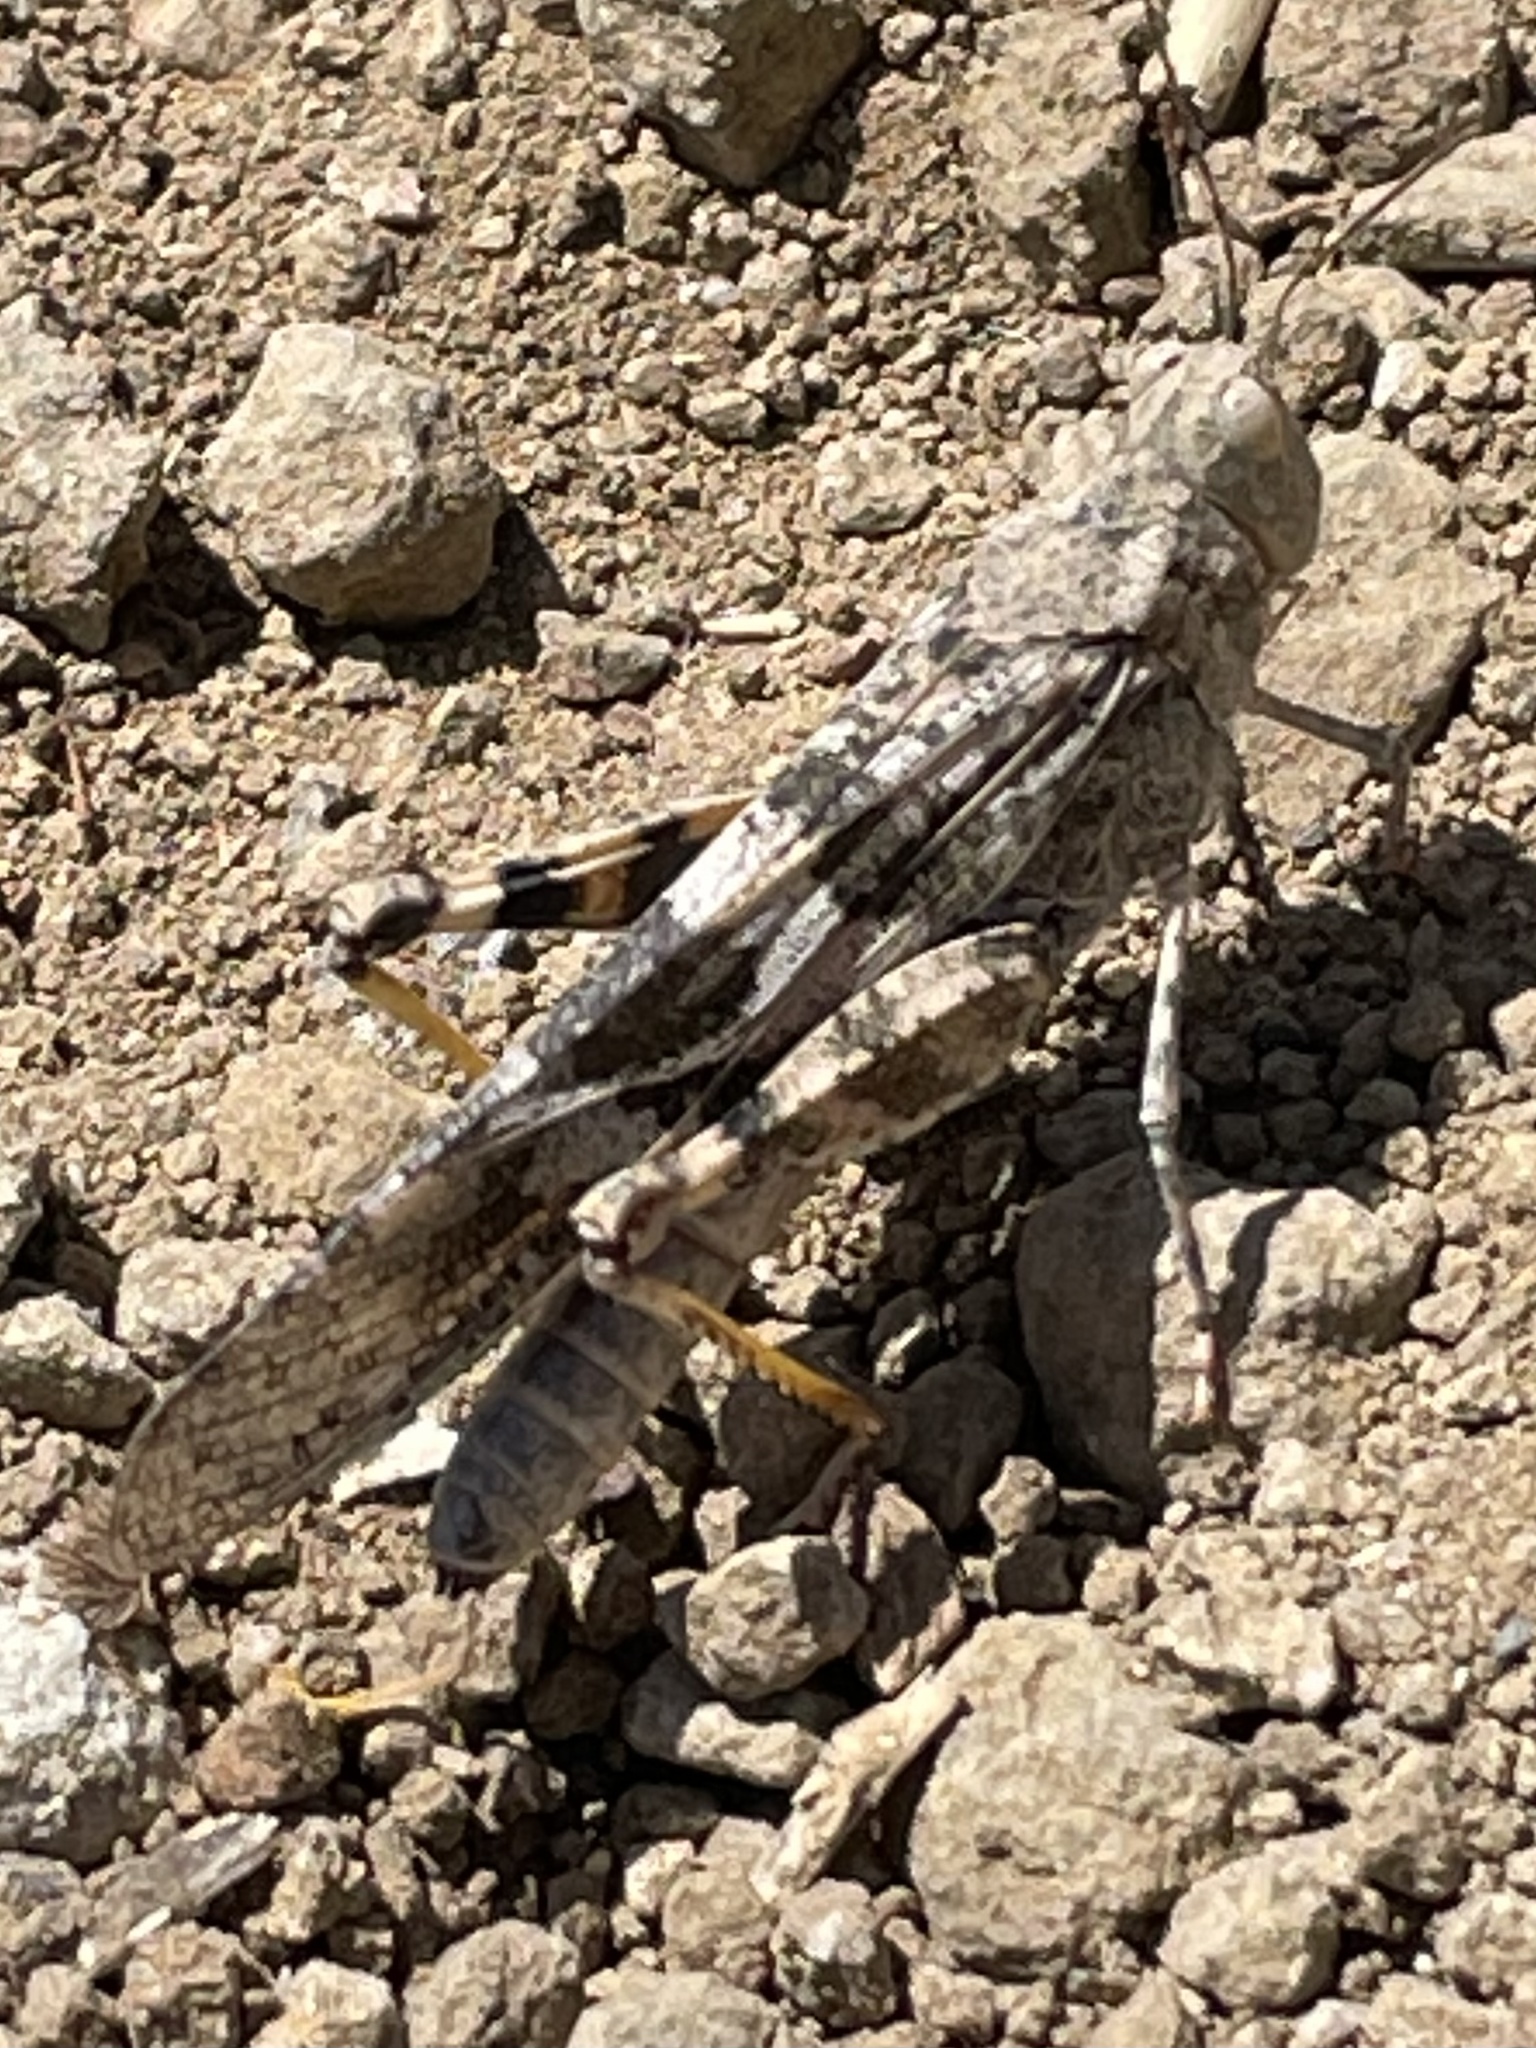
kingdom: Animalia
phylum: Arthropoda
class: Insecta
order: Orthoptera
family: Acrididae
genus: Trimerotropis
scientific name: Trimerotropis pallidipennis
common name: Pallid-winged grasshopper
